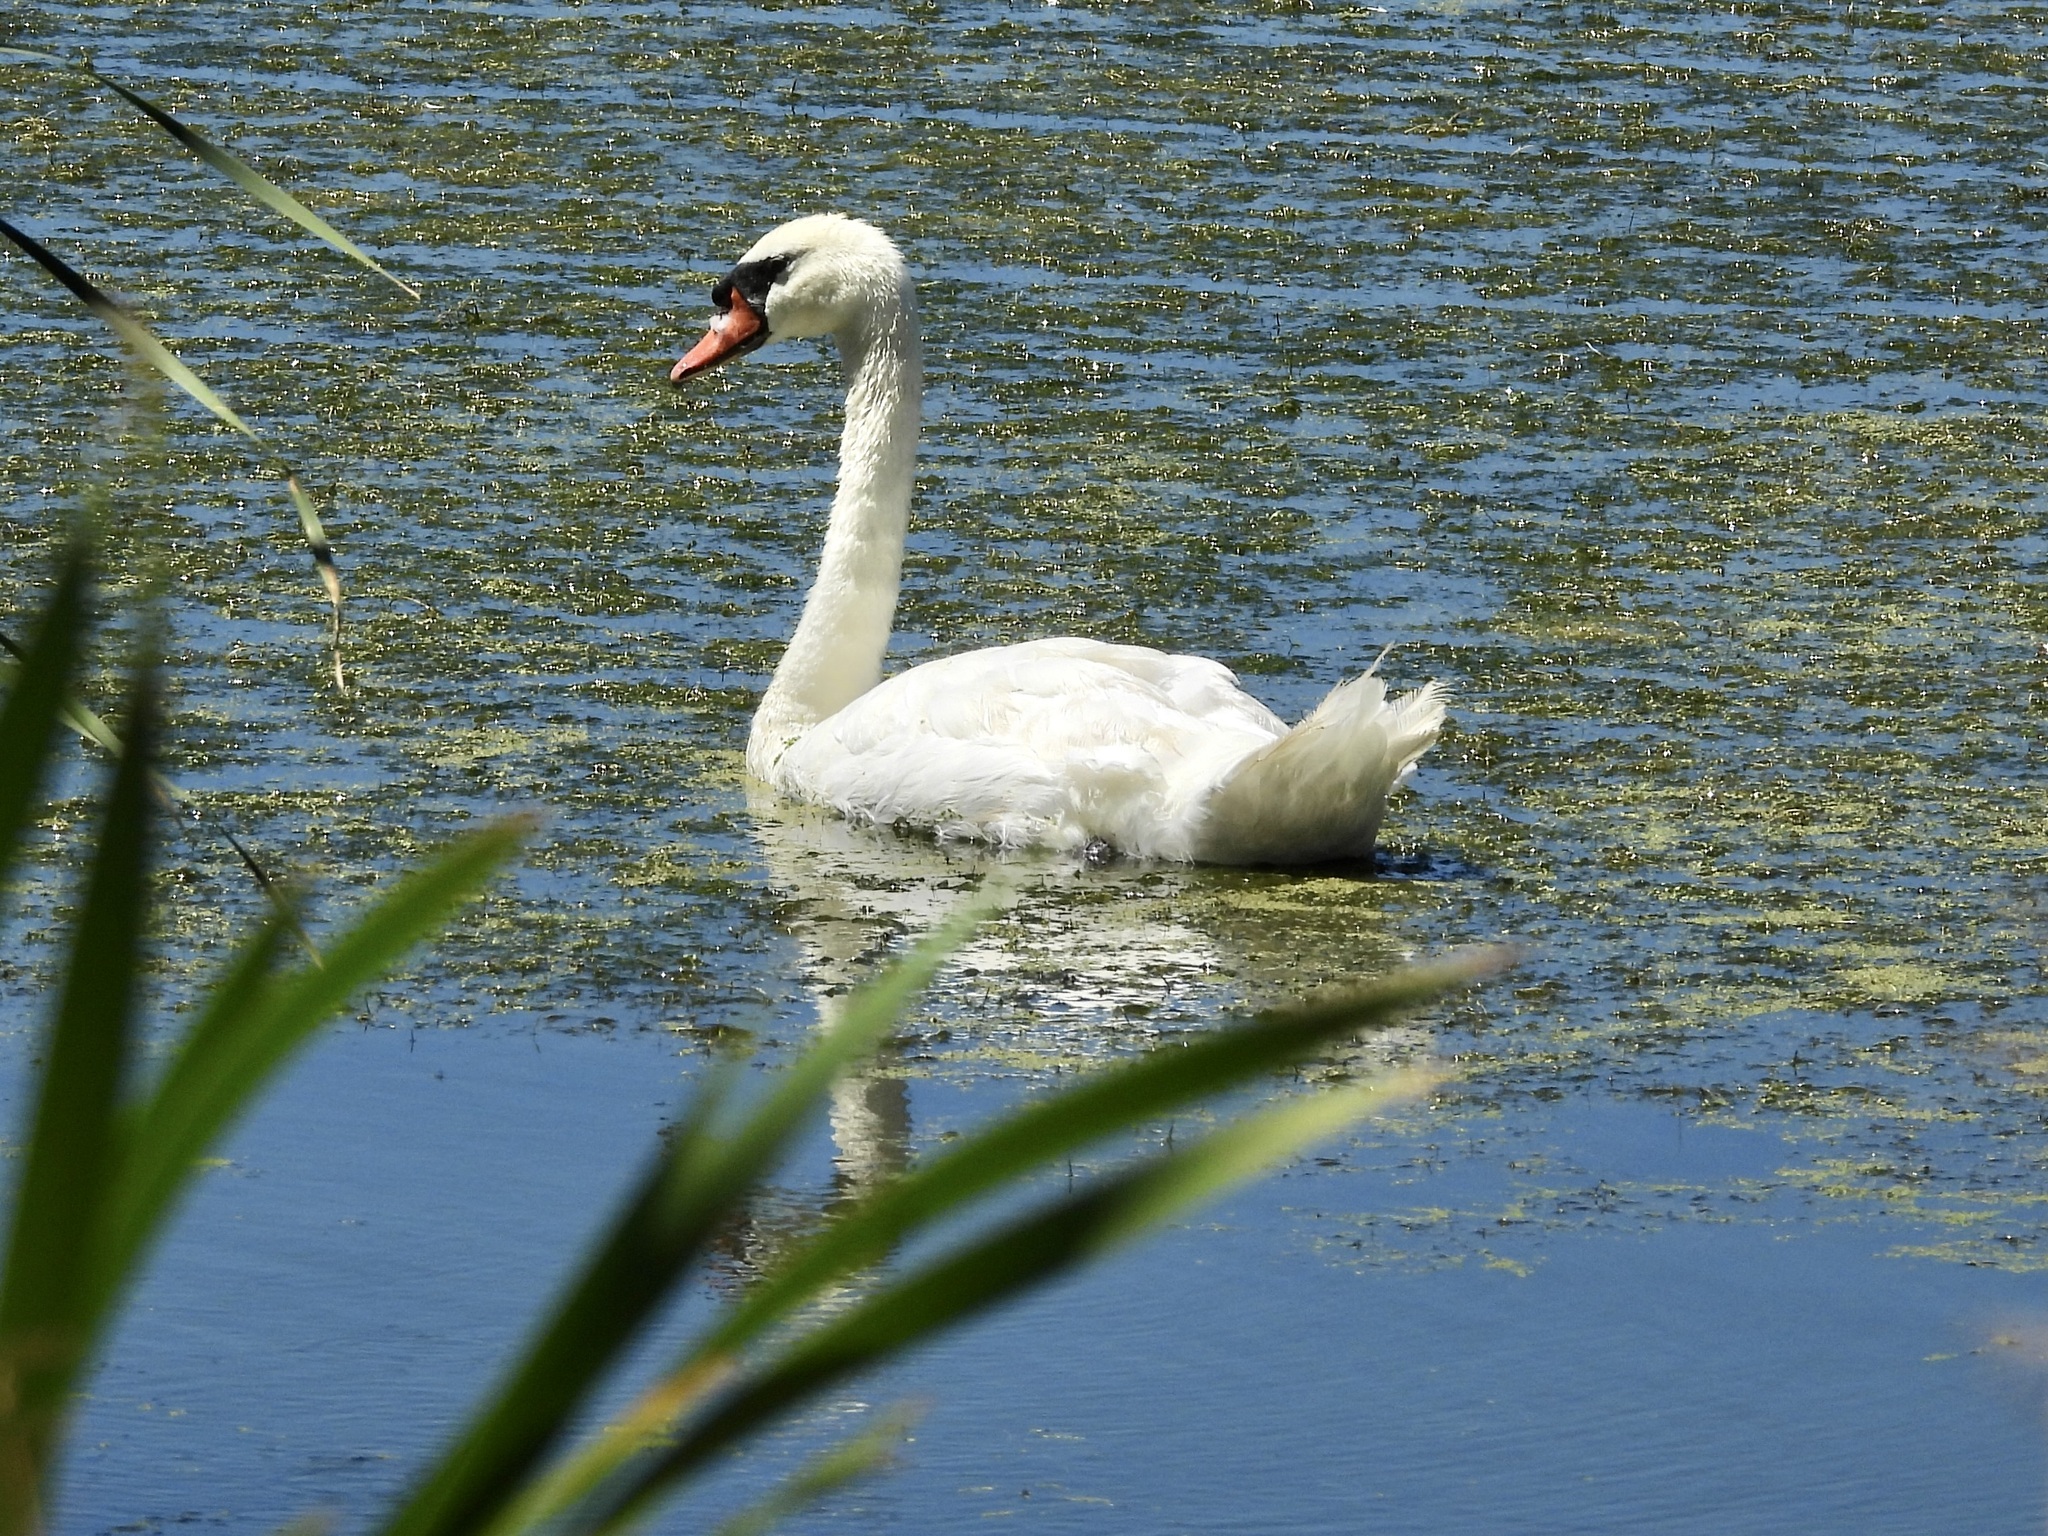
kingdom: Animalia
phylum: Chordata
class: Aves
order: Anseriformes
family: Anatidae
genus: Cygnus
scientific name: Cygnus olor
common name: Mute swan
